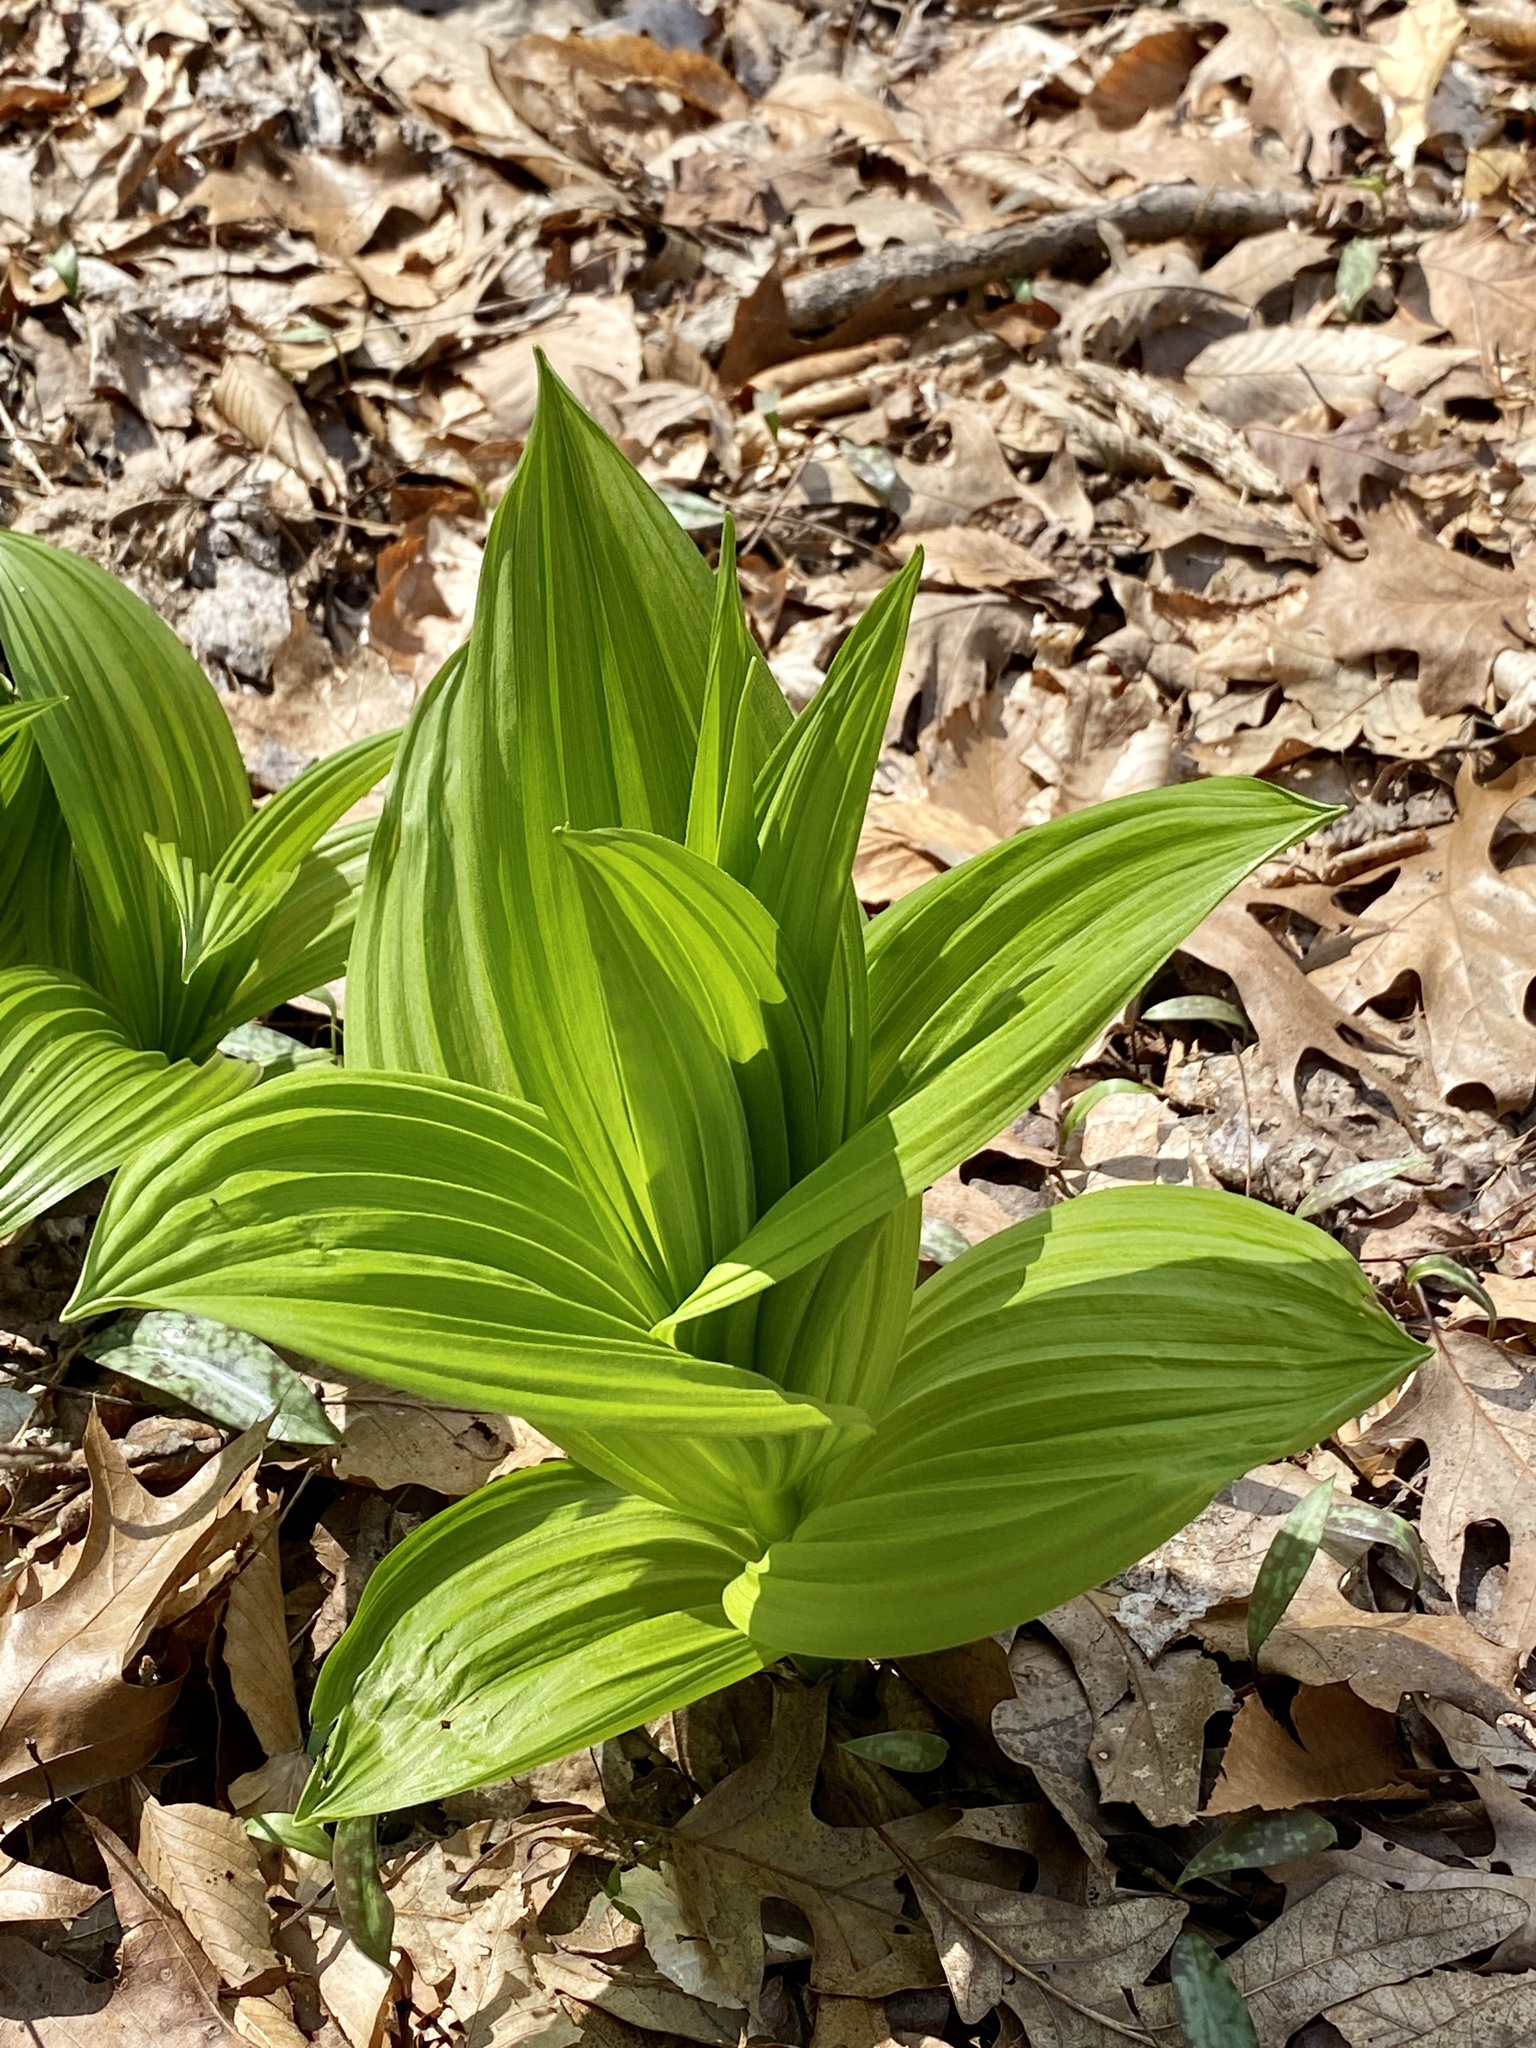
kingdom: Plantae
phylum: Tracheophyta
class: Liliopsida
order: Liliales
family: Melanthiaceae
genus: Veratrum
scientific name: Veratrum viride
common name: American false hellebore
